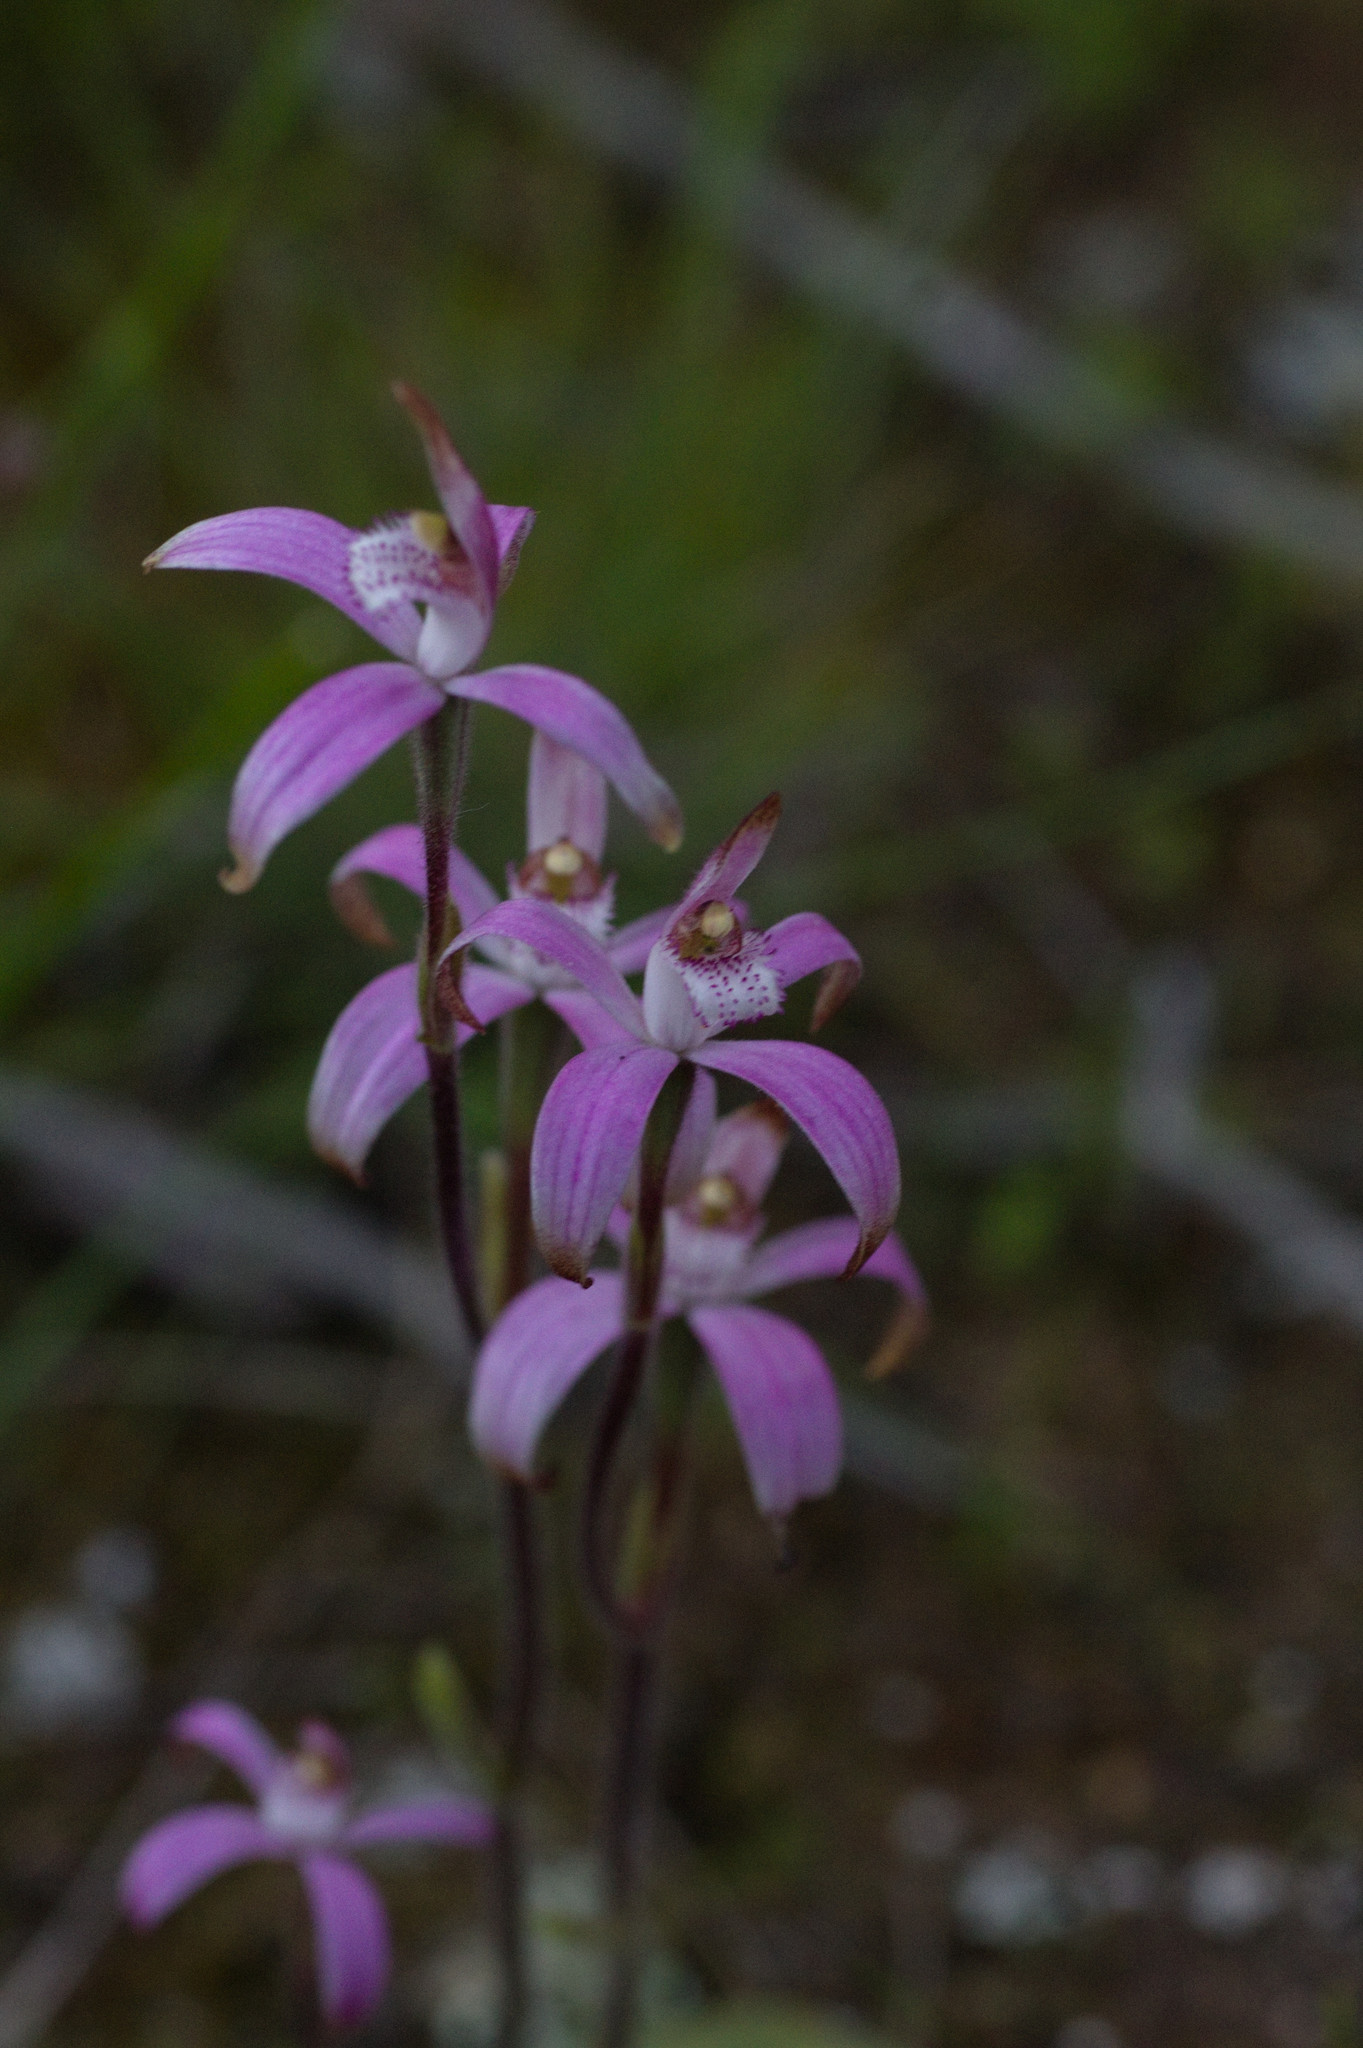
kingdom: Plantae
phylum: Tracheophyta
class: Liliopsida
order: Asparagales
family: Orchidaceae
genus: Caladenia
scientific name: Caladenia hirta
